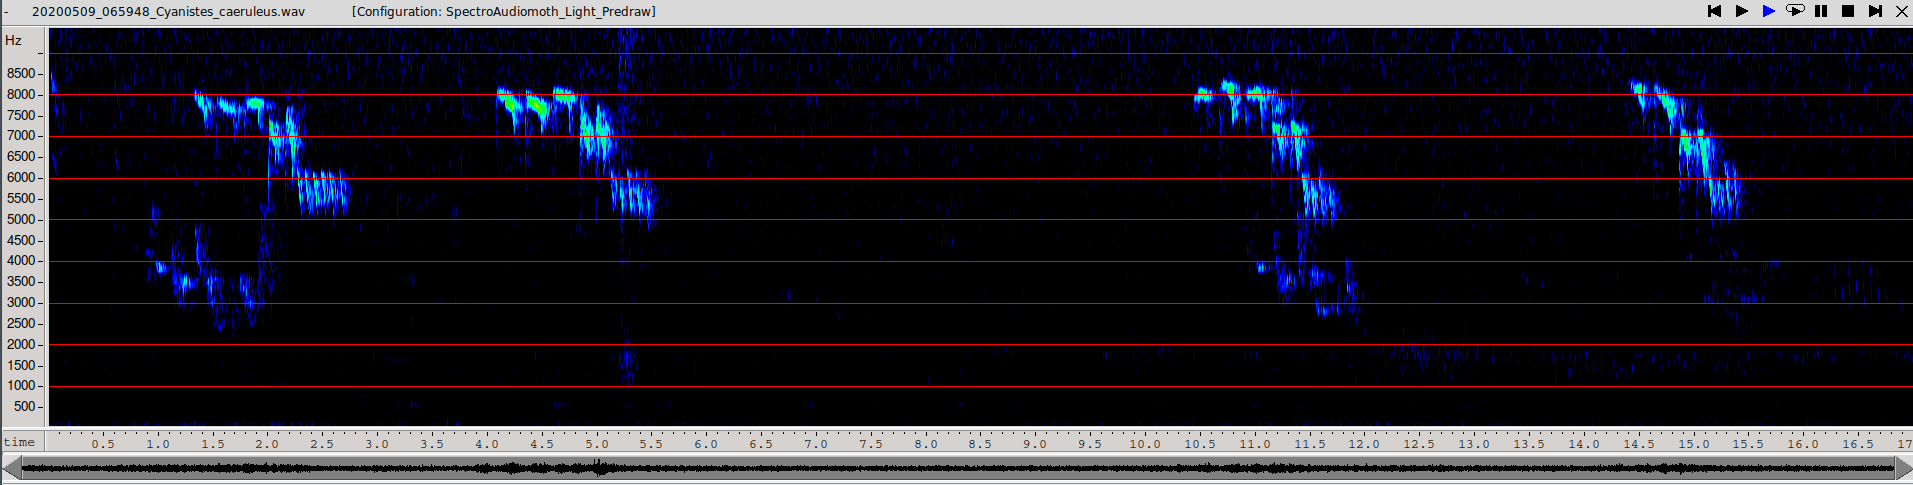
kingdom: Animalia
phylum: Chordata
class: Aves
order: Passeriformes
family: Paridae
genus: Cyanistes
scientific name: Cyanistes caeruleus
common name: Eurasian blue tit
